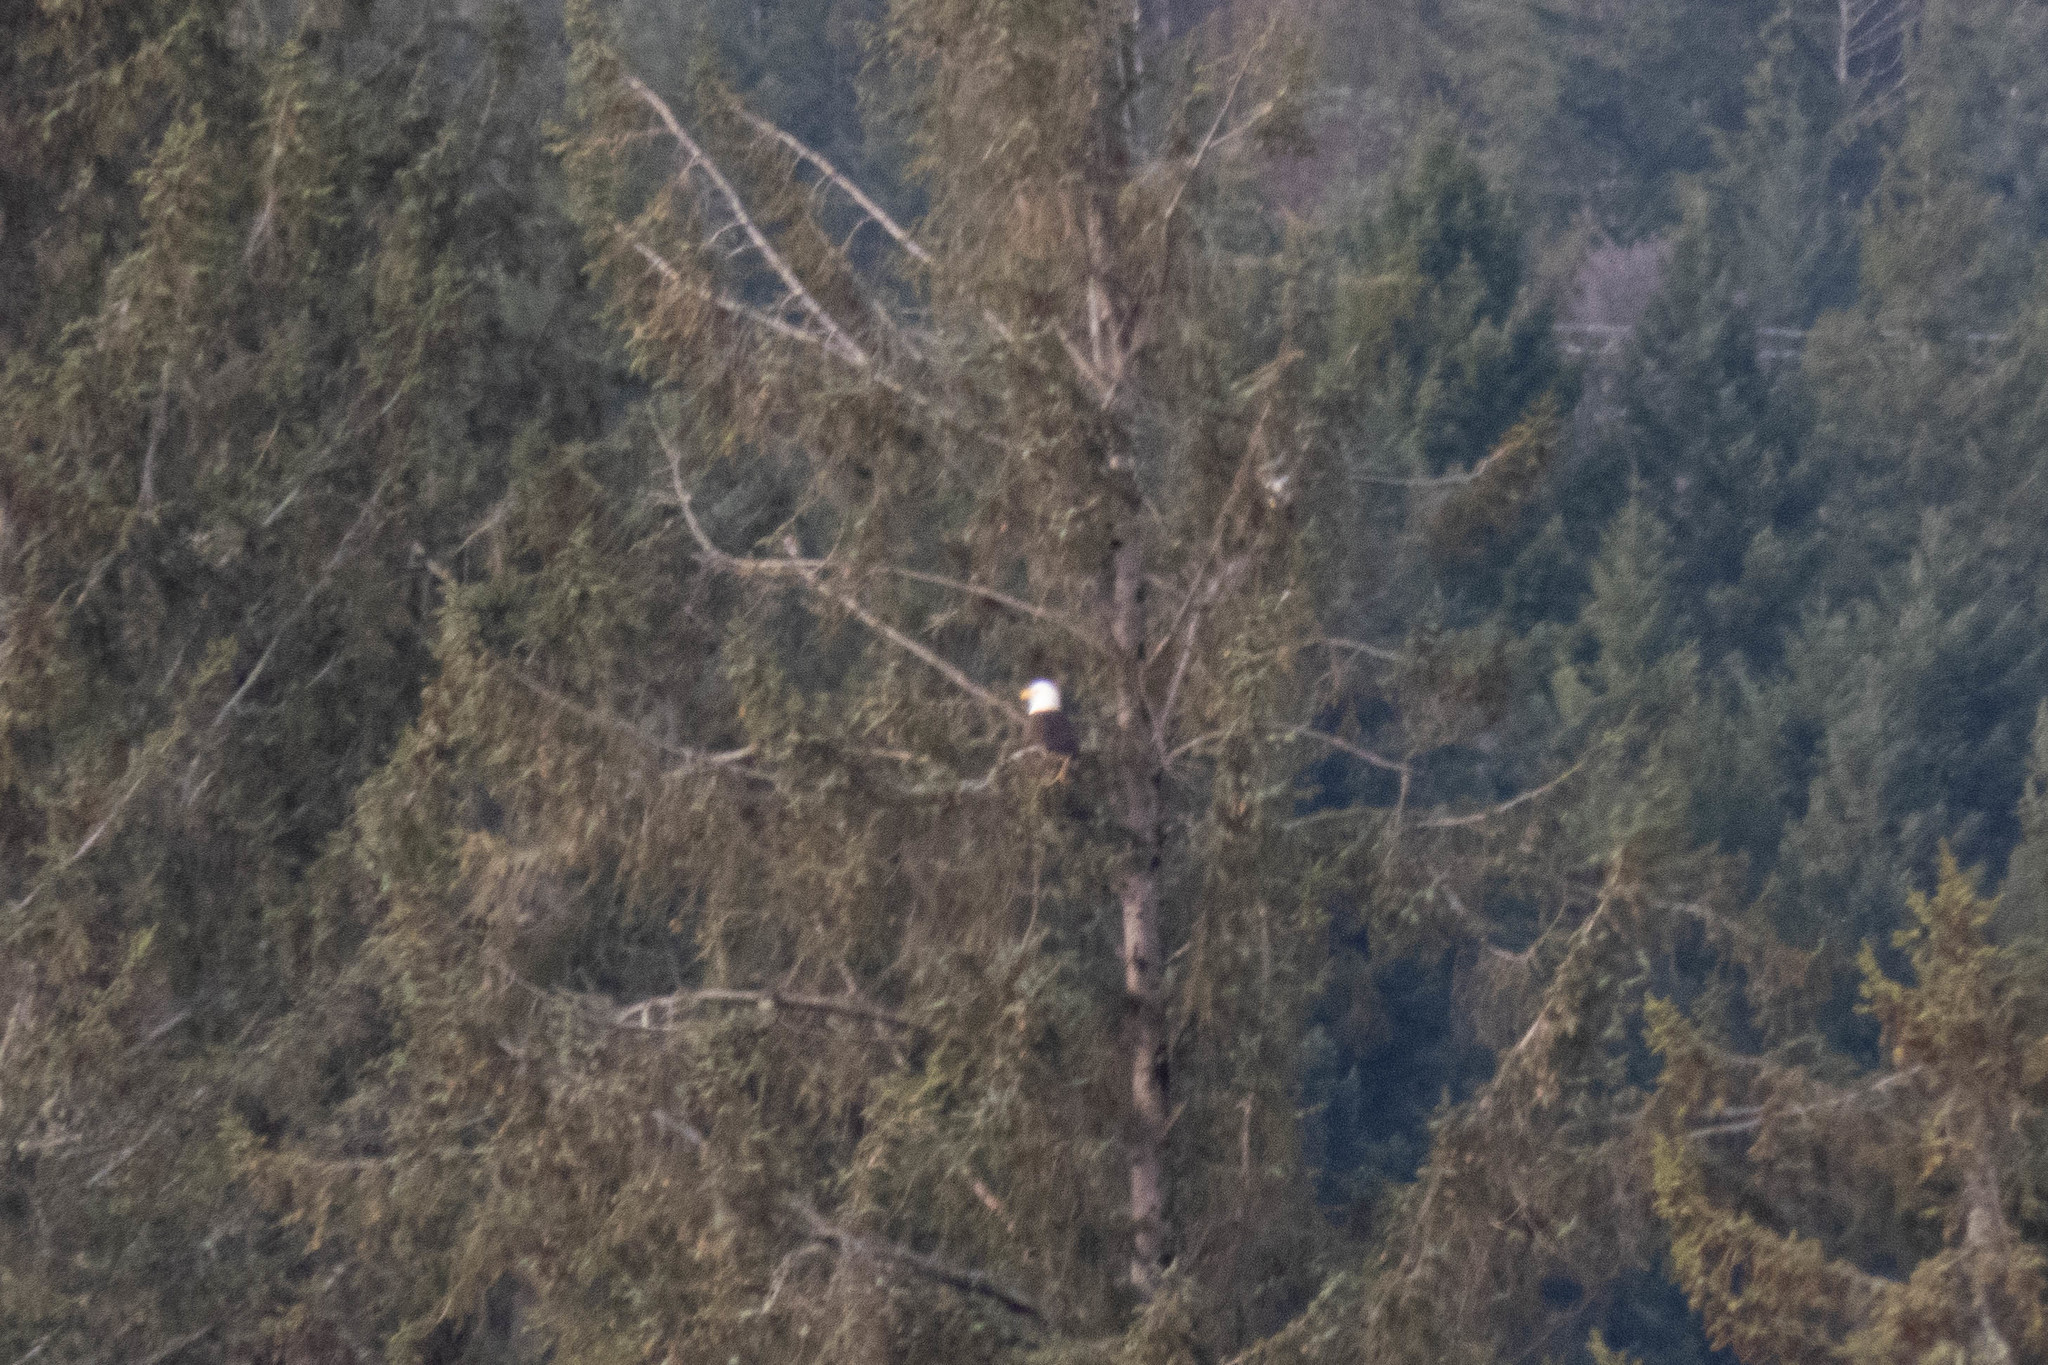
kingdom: Animalia
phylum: Chordata
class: Aves
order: Accipitriformes
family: Accipitridae
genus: Haliaeetus
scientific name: Haliaeetus leucocephalus
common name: Bald eagle
